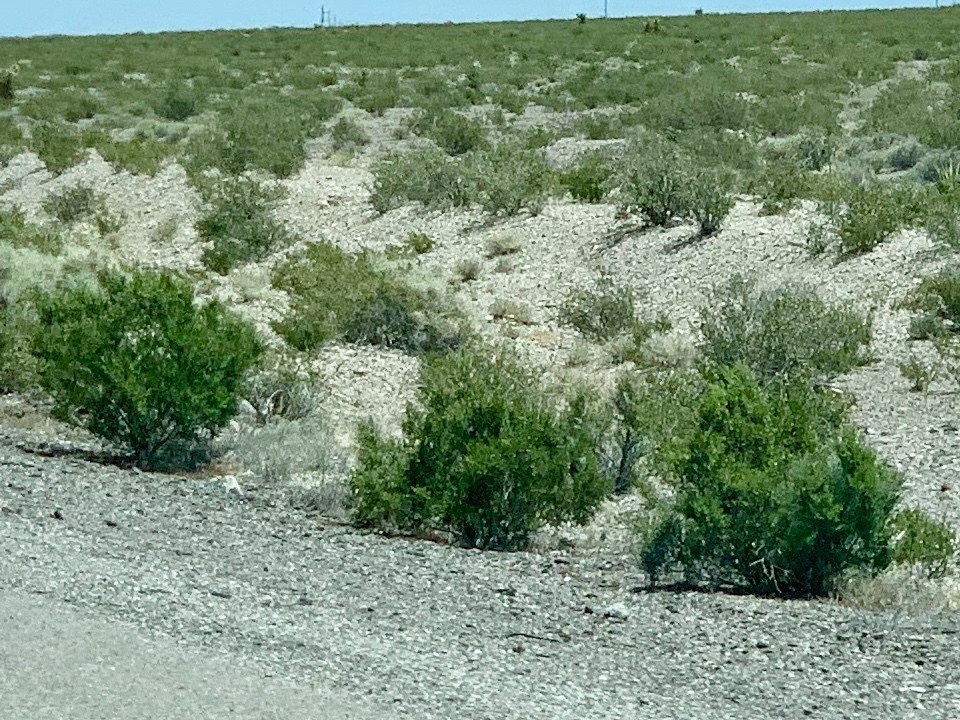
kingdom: Plantae
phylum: Tracheophyta
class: Magnoliopsida
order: Zygophyllales
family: Zygophyllaceae
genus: Larrea
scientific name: Larrea tridentata
